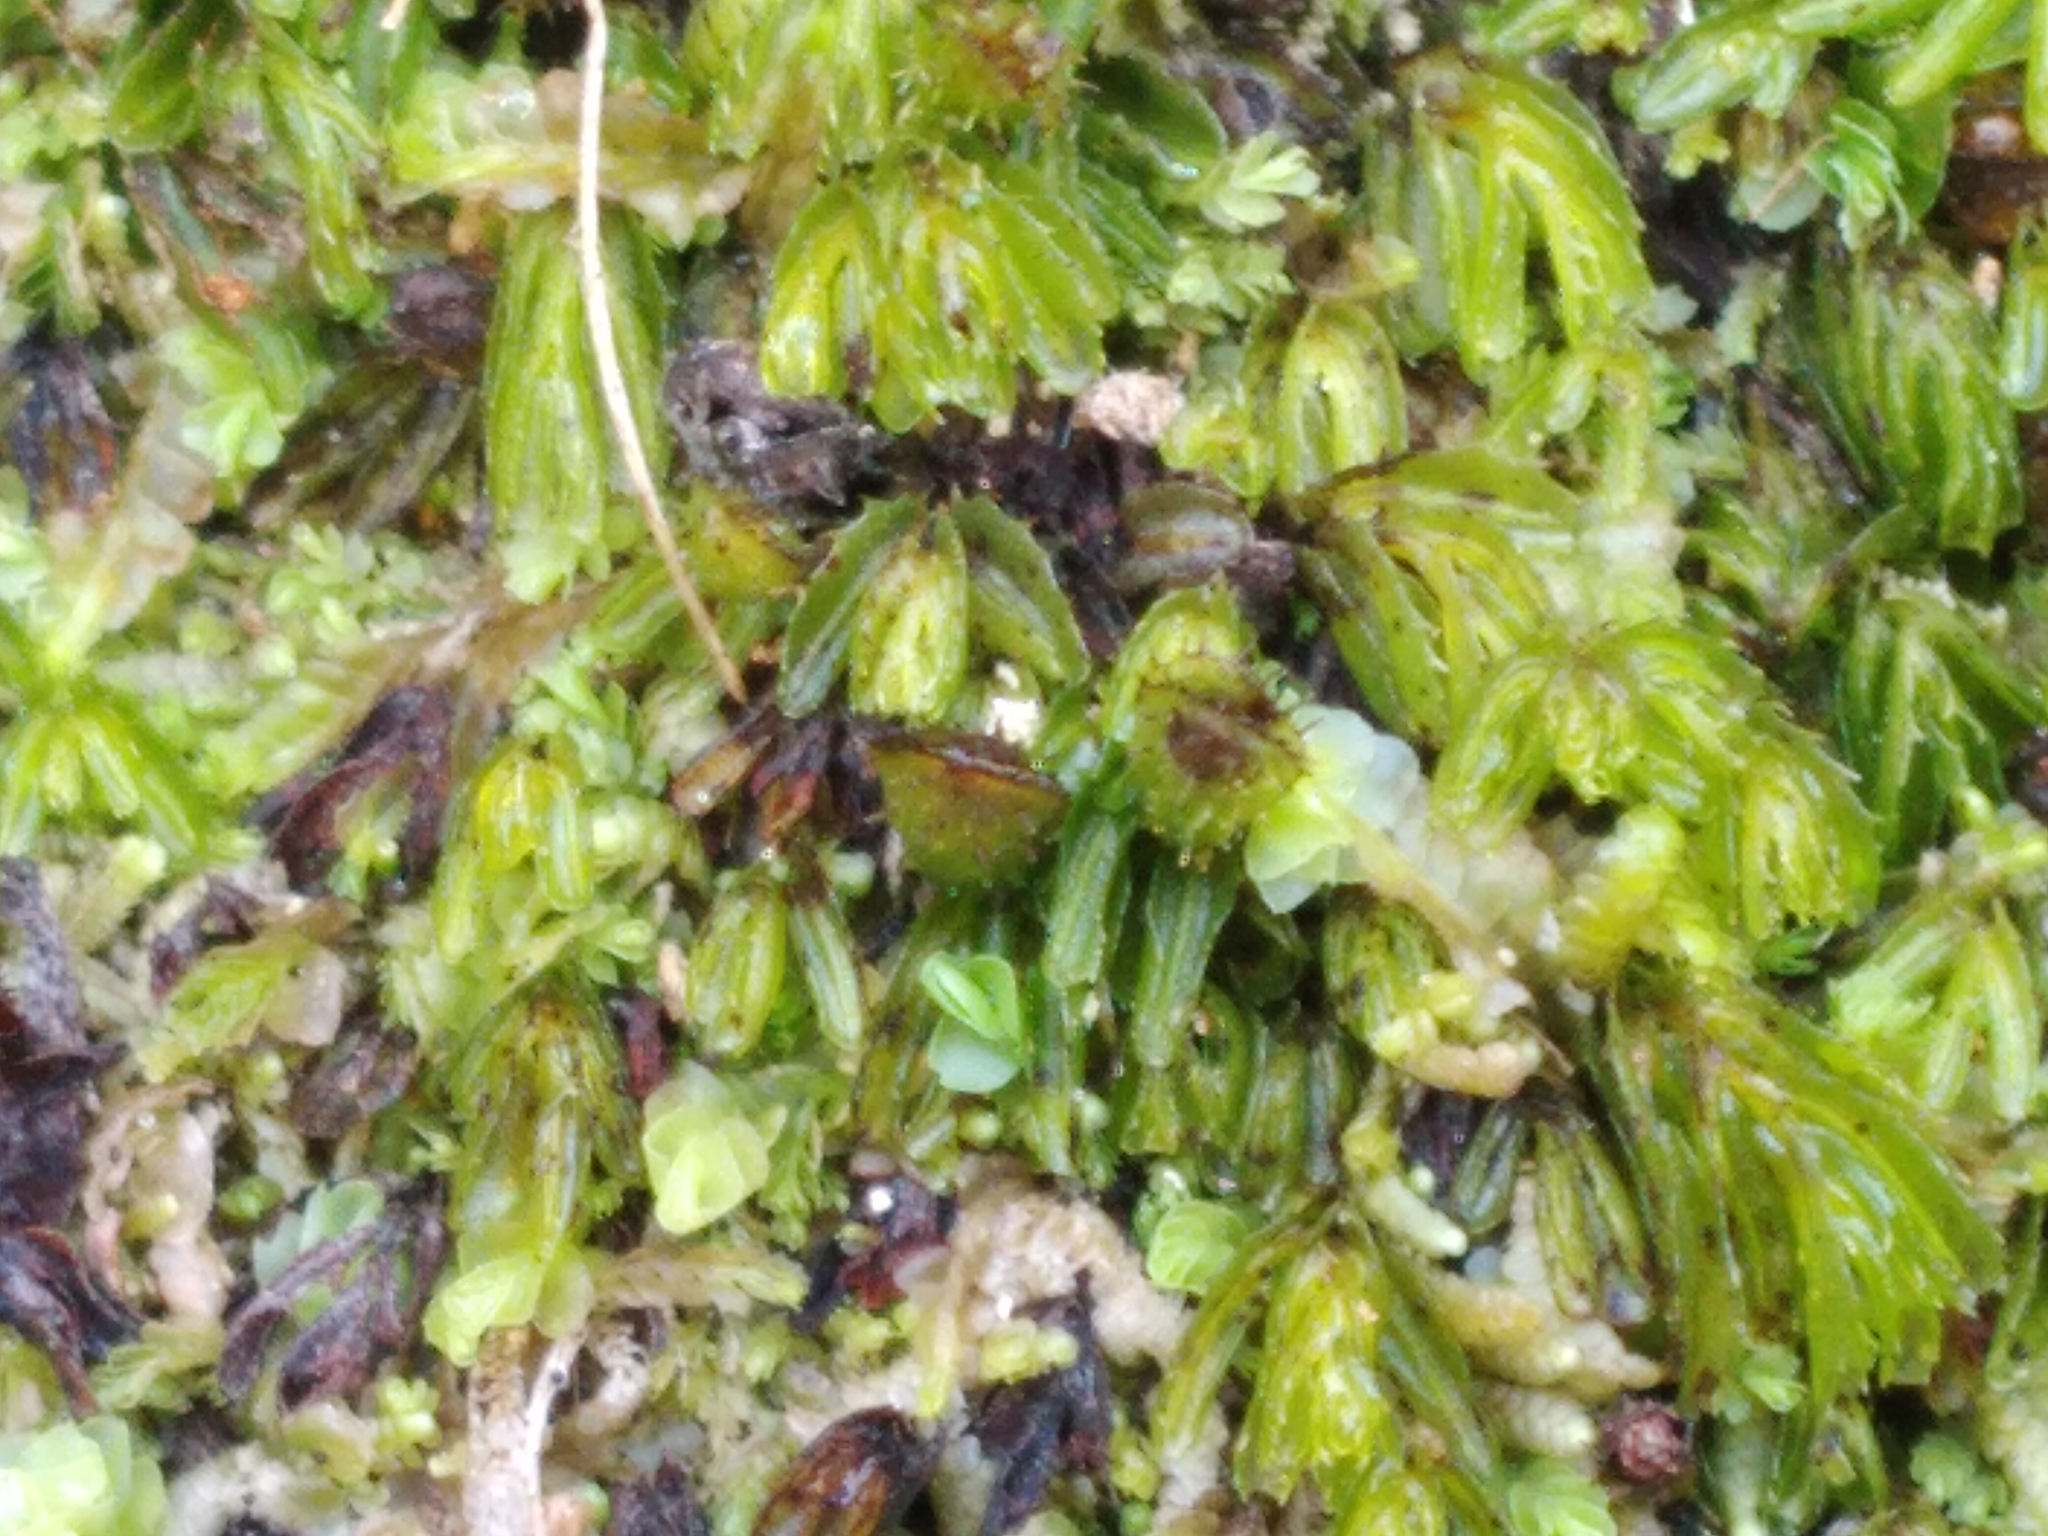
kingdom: Plantae
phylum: Tracheophyta
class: Polypodiopsida
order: Hymenophyllales
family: Hymenophyllaceae
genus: Hymenophyllum
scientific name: Hymenophyllum minimum
